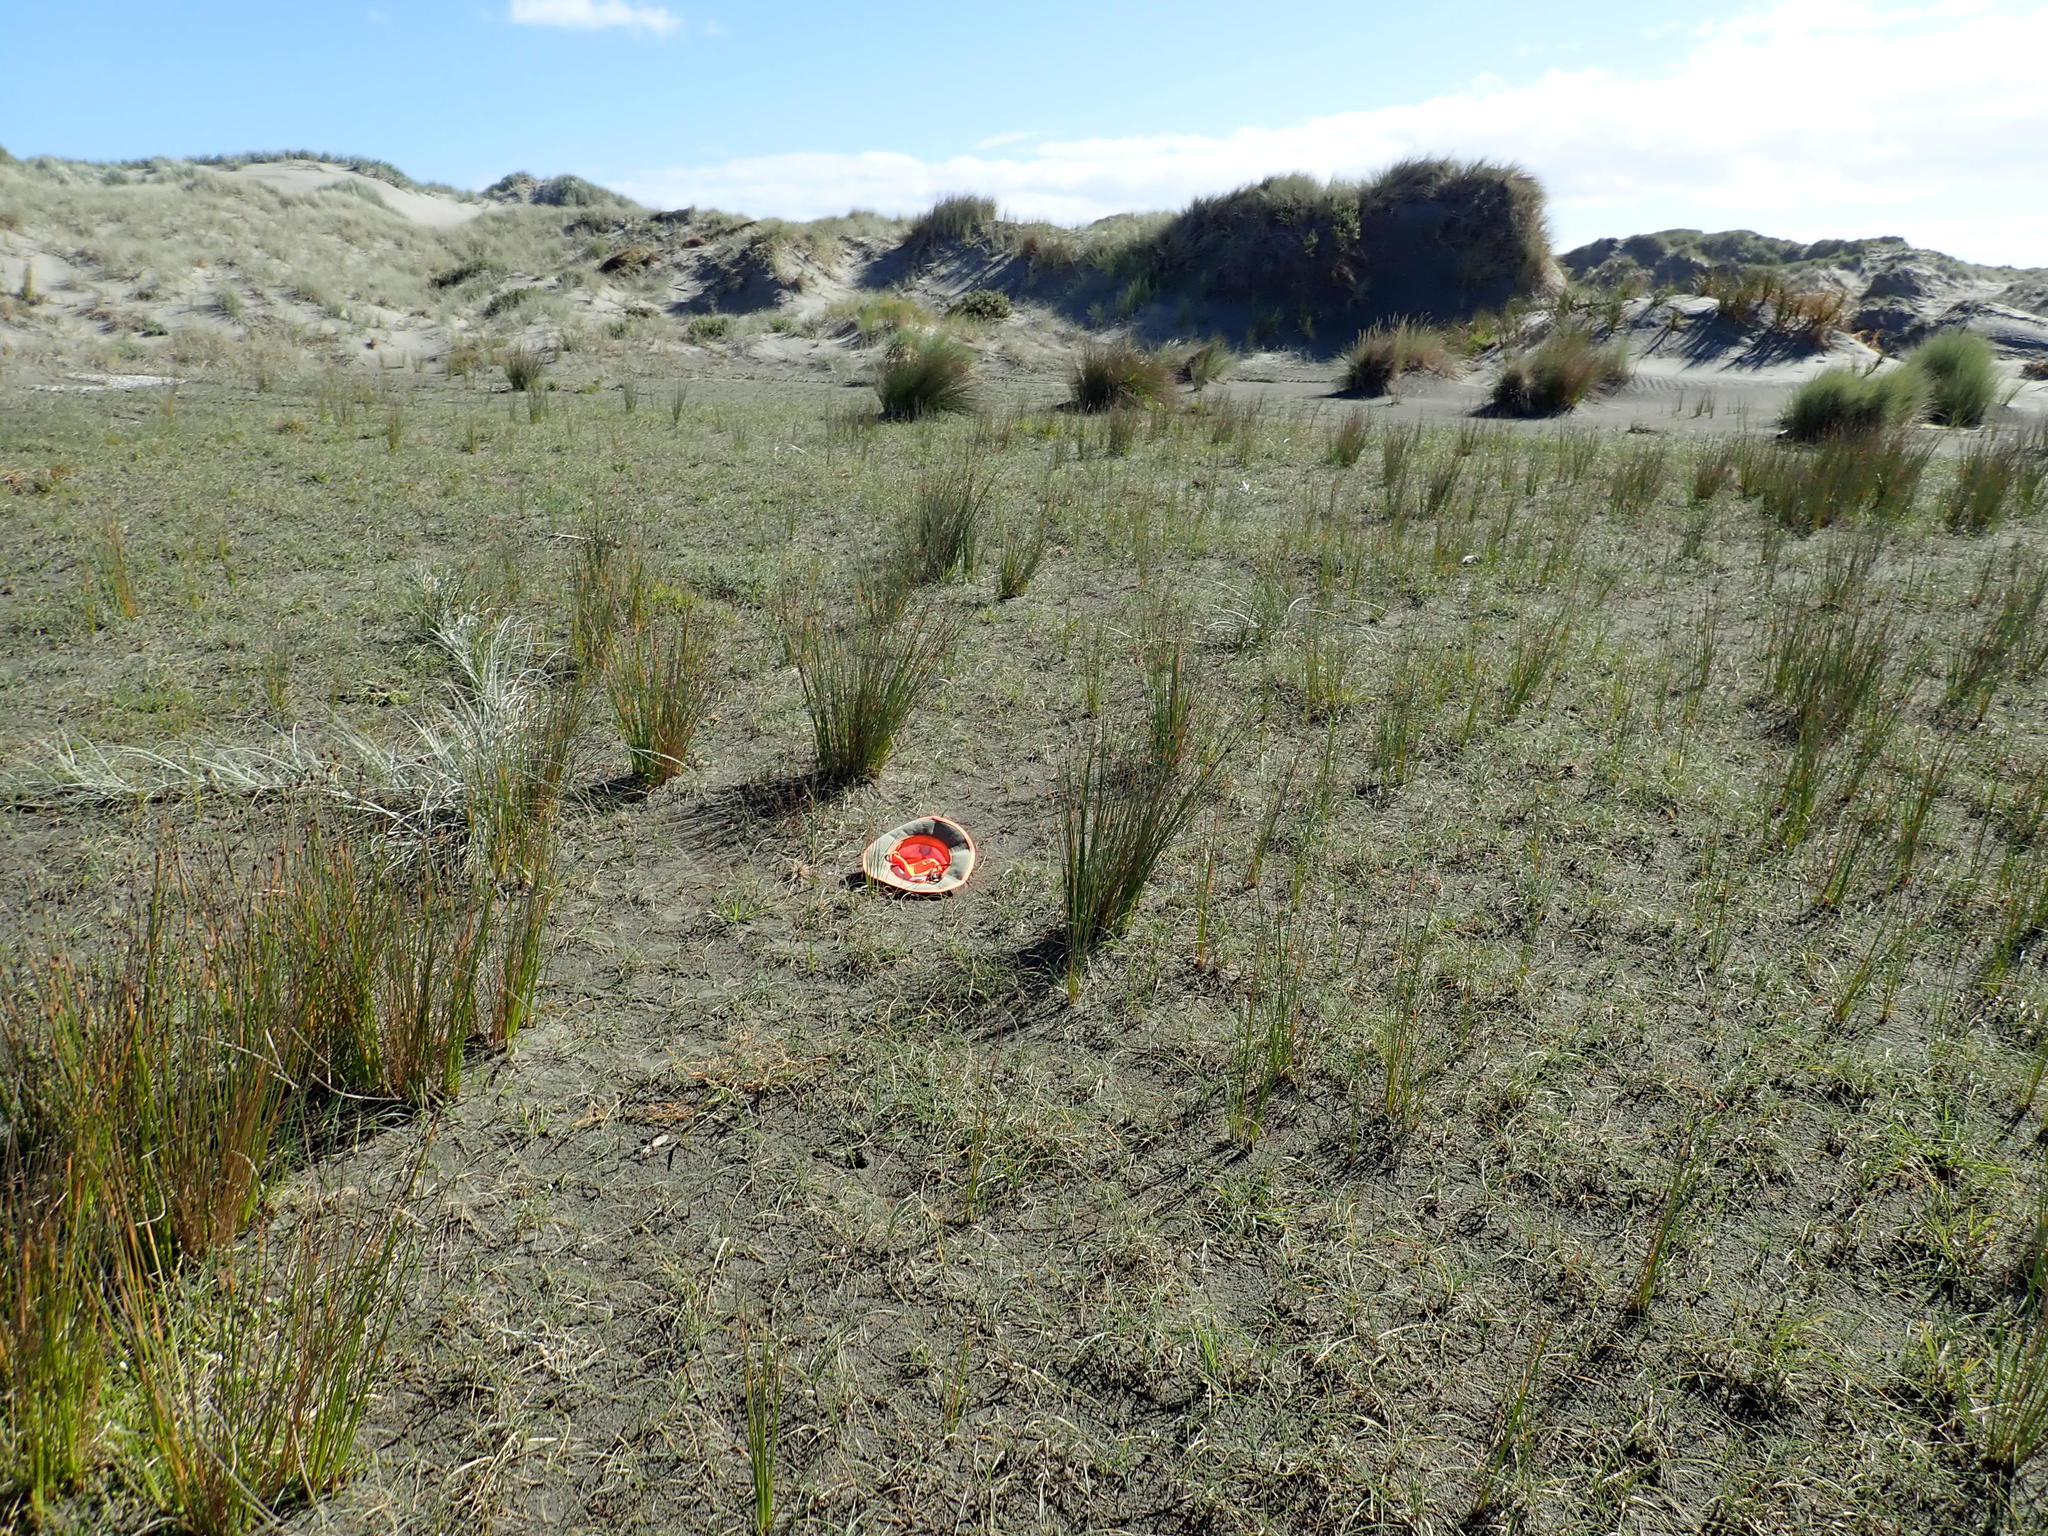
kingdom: Plantae
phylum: Tracheophyta
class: Magnoliopsida
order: Gentianales
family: Rubiaceae
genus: Coprosma
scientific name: Coprosma acerosa
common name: Sand coprosma
